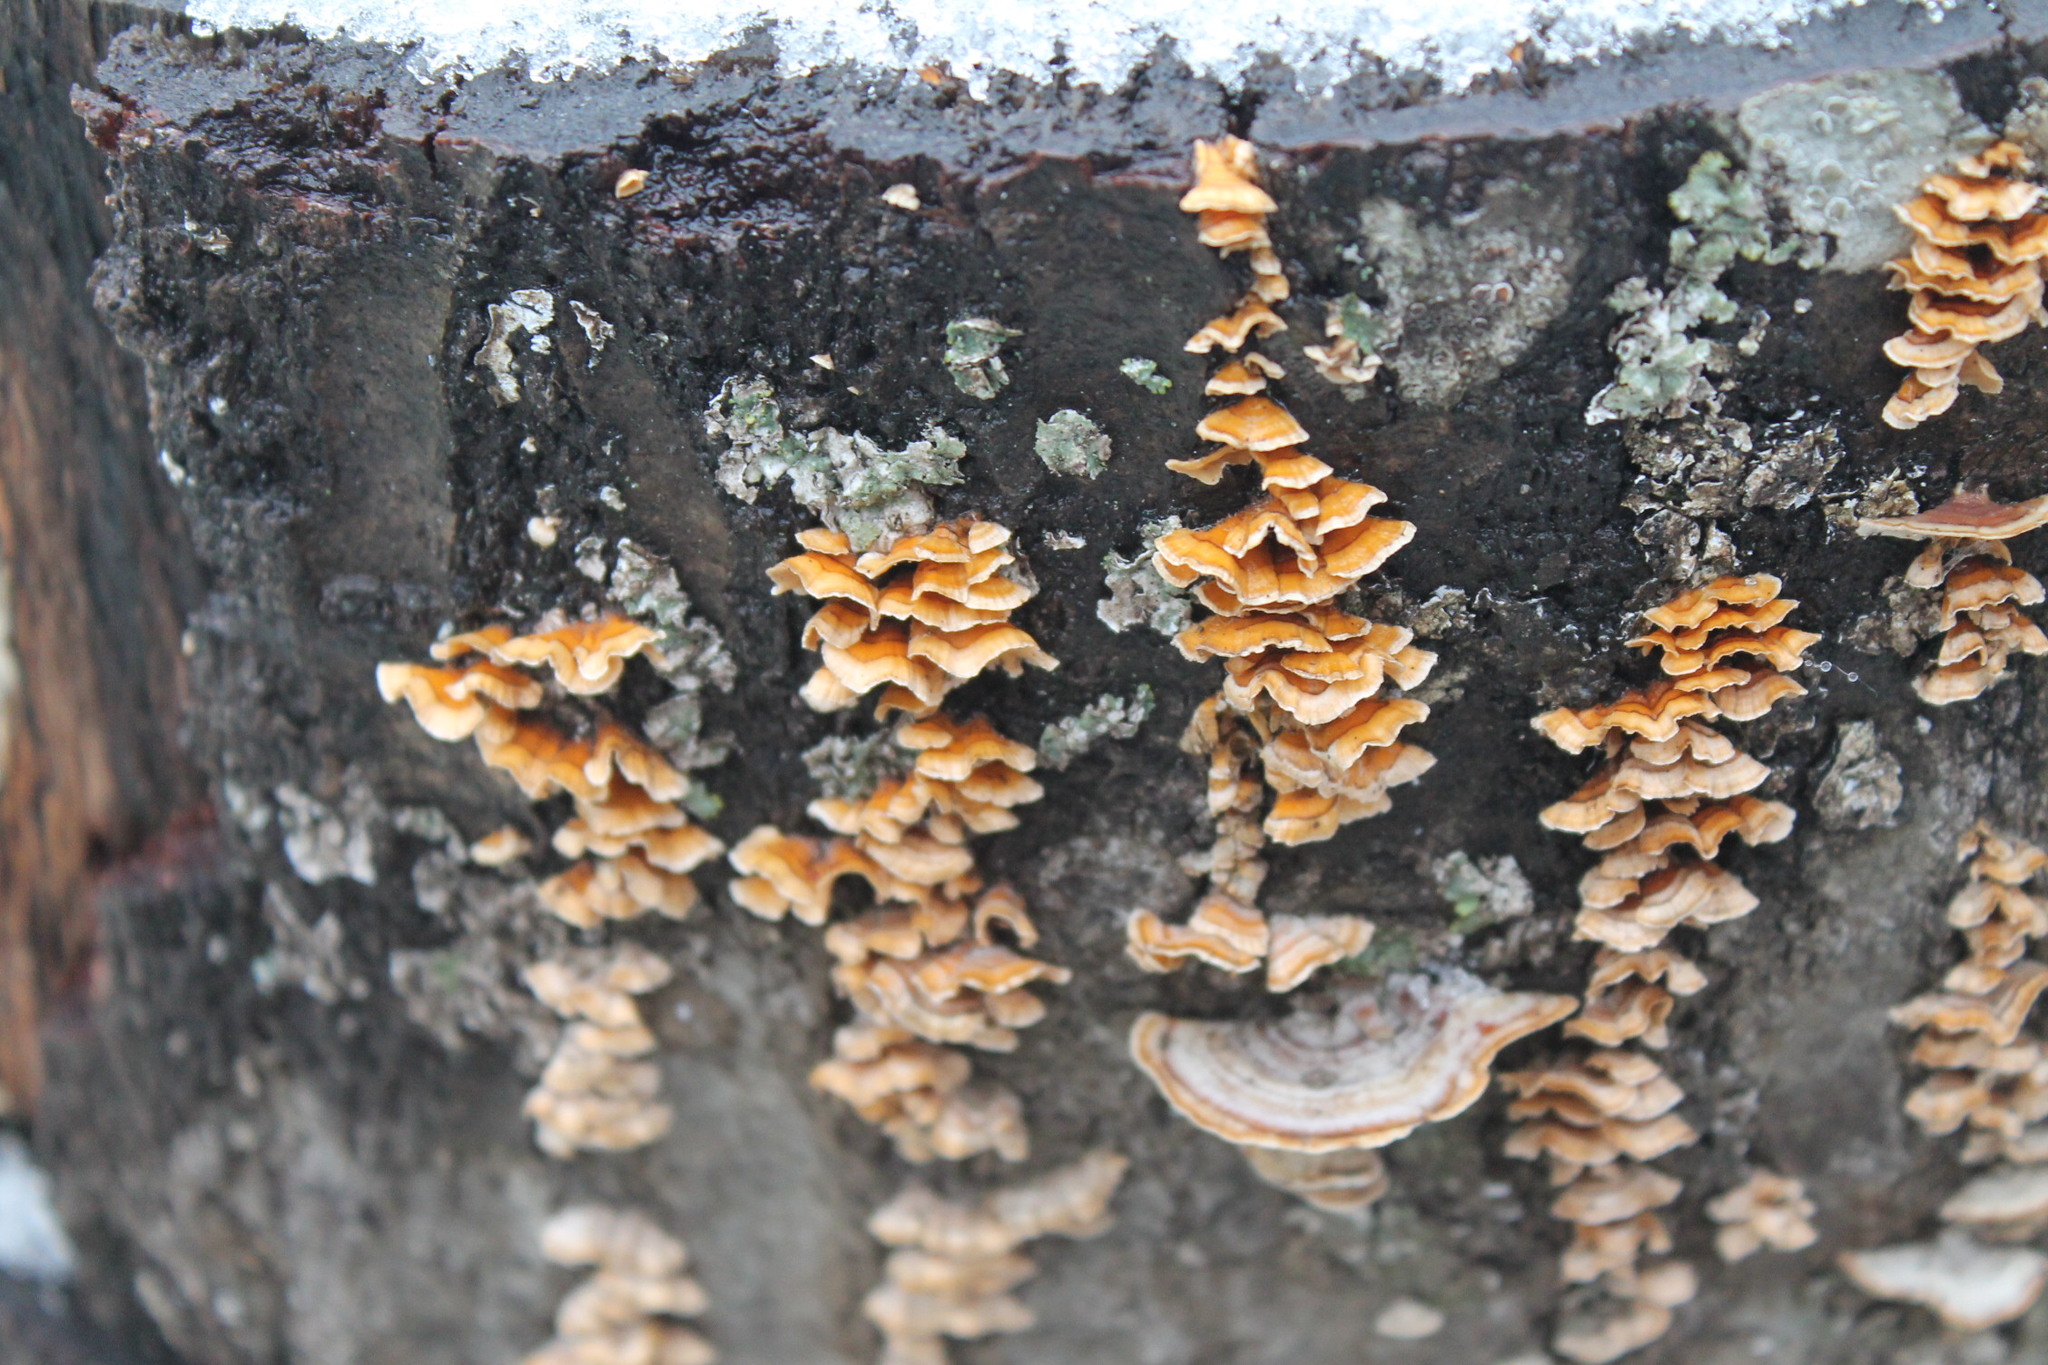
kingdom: Fungi
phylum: Basidiomycota
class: Agaricomycetes
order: Russulales
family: Stereaceae
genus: Stereum
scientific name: Stereum complicatum
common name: Crowded parchment
